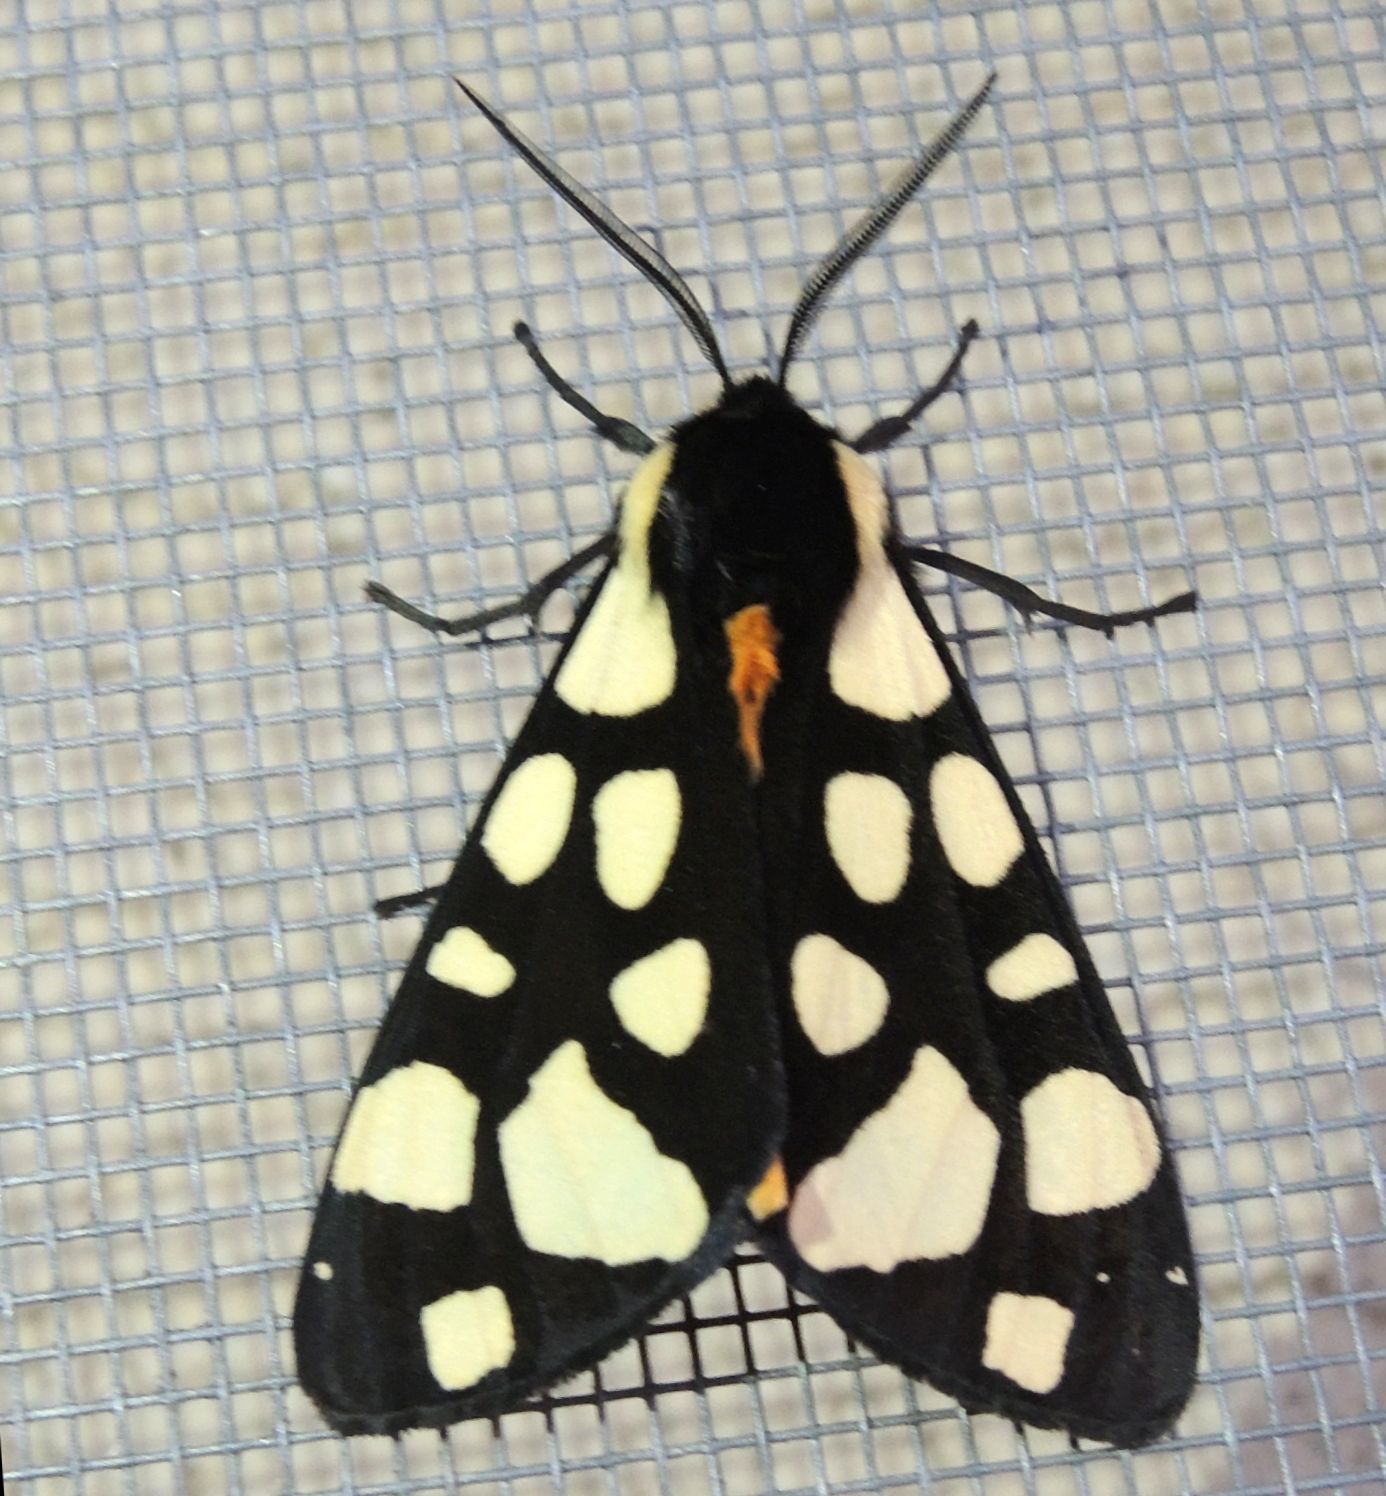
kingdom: Animalia
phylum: Arthropoda
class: Insecta
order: Lepidoptera
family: Erebidae
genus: Epicallia
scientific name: Epicallia villica
